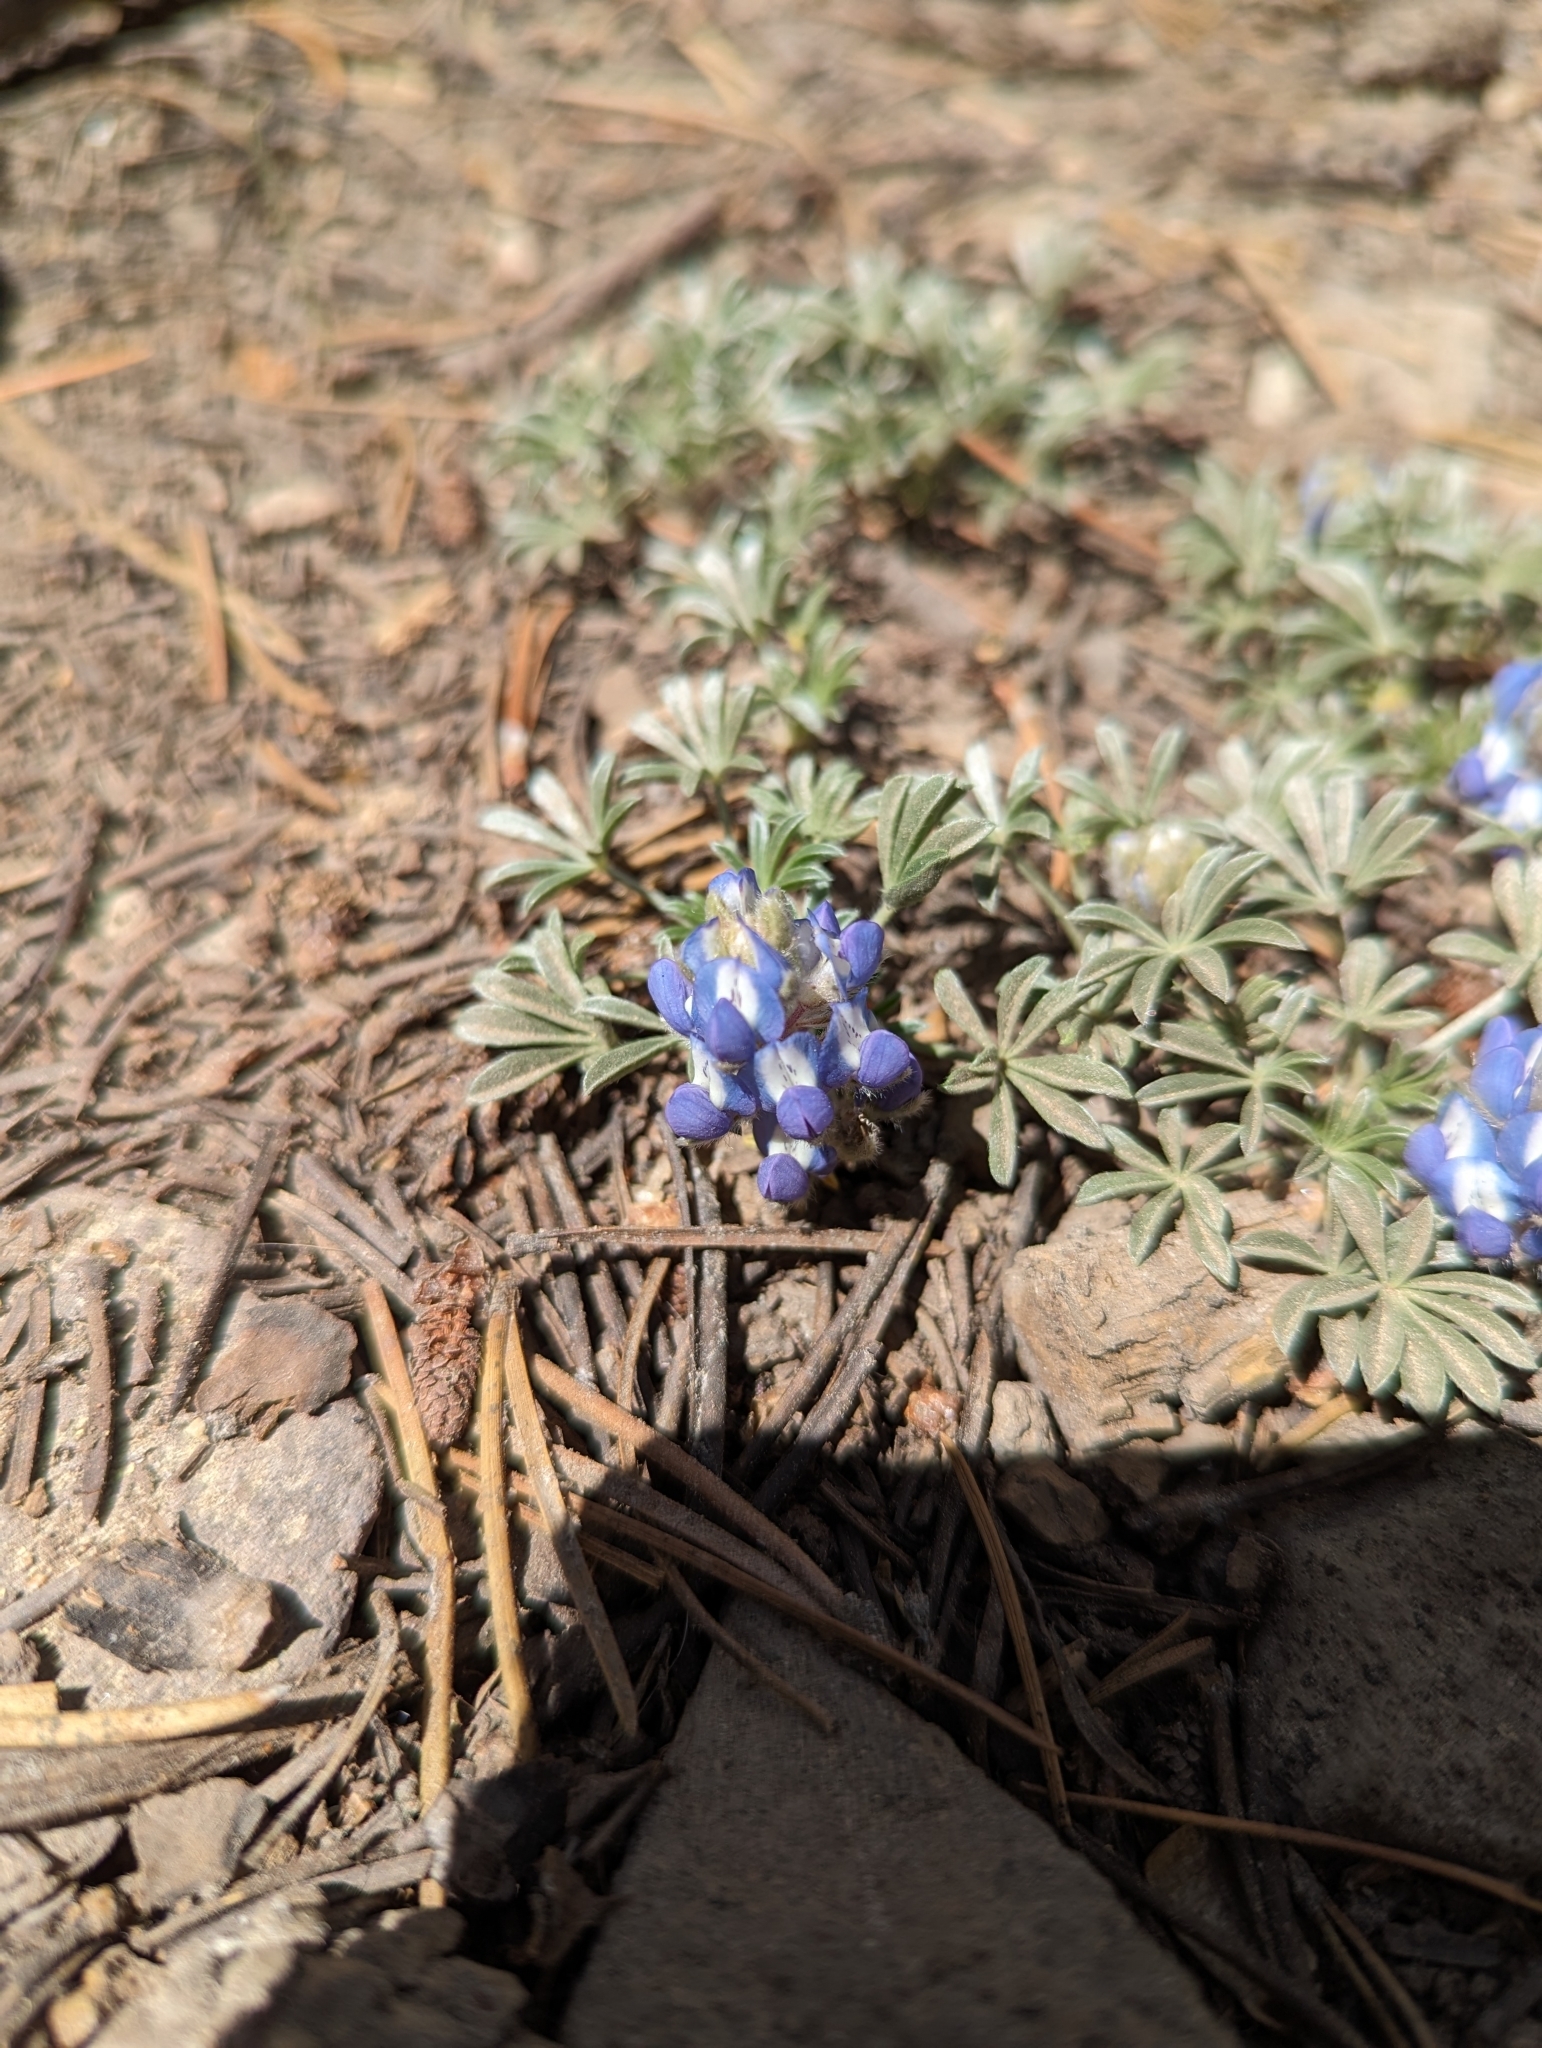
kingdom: Plantae
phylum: Tracheophyta
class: Magnoliopsida
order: Fabales
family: Fabaceae
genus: Lupinus
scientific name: Lupinus breweri
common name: Brewer's lupine
